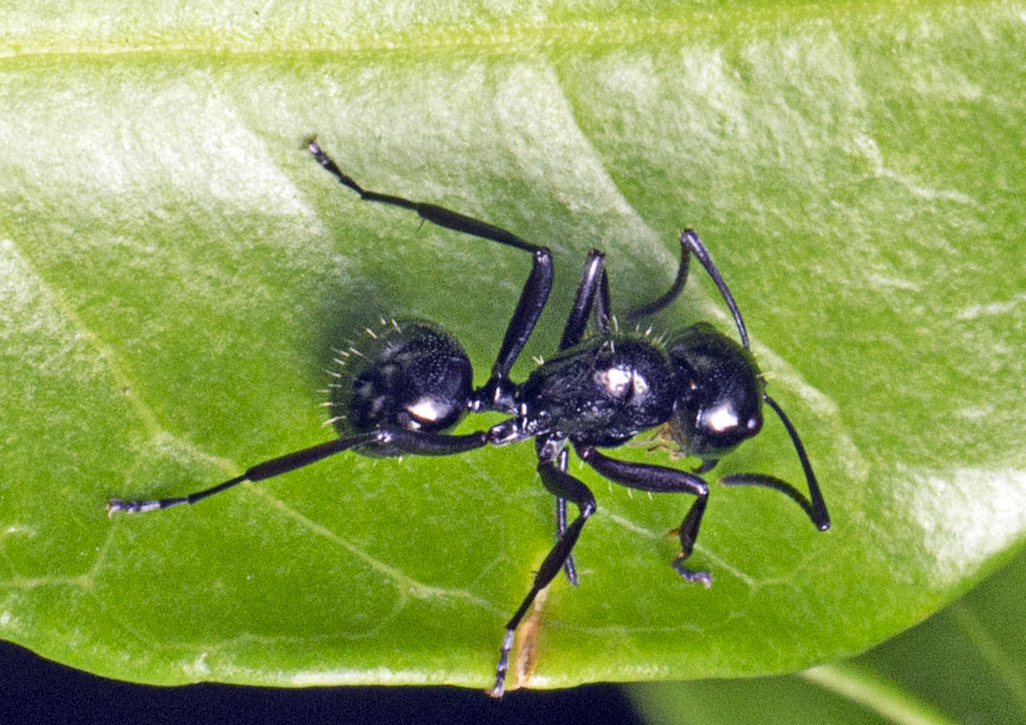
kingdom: Animalia
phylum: Arthropoda
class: Insecta
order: Hymenoptera
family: Formicidae
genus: Polyrhachis
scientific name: Polyrhachis pilosa
